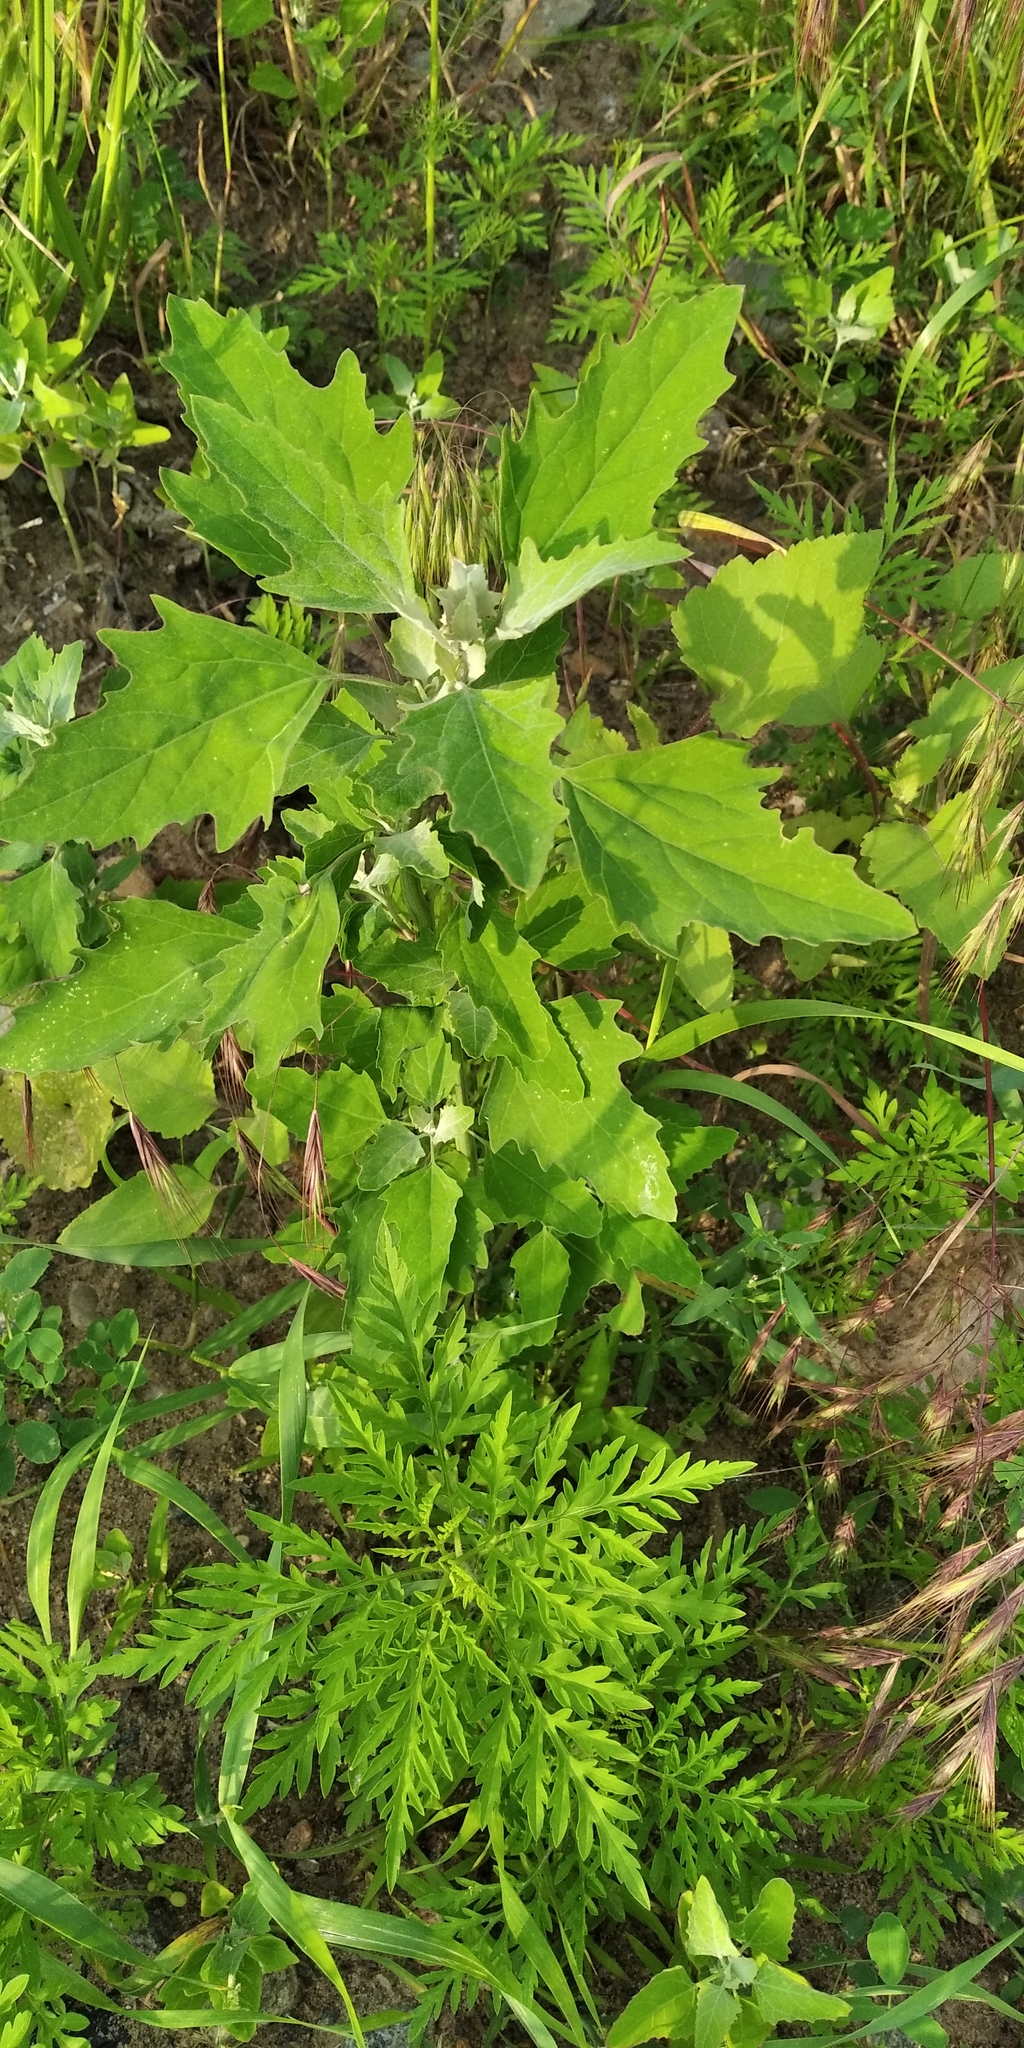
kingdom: Plantae
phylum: Tracheophyta
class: Magnoliopsida
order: Caryophyllales
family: Amaranthaceae
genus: Chenopodium
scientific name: Chenopodium album
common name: Fat-hen
